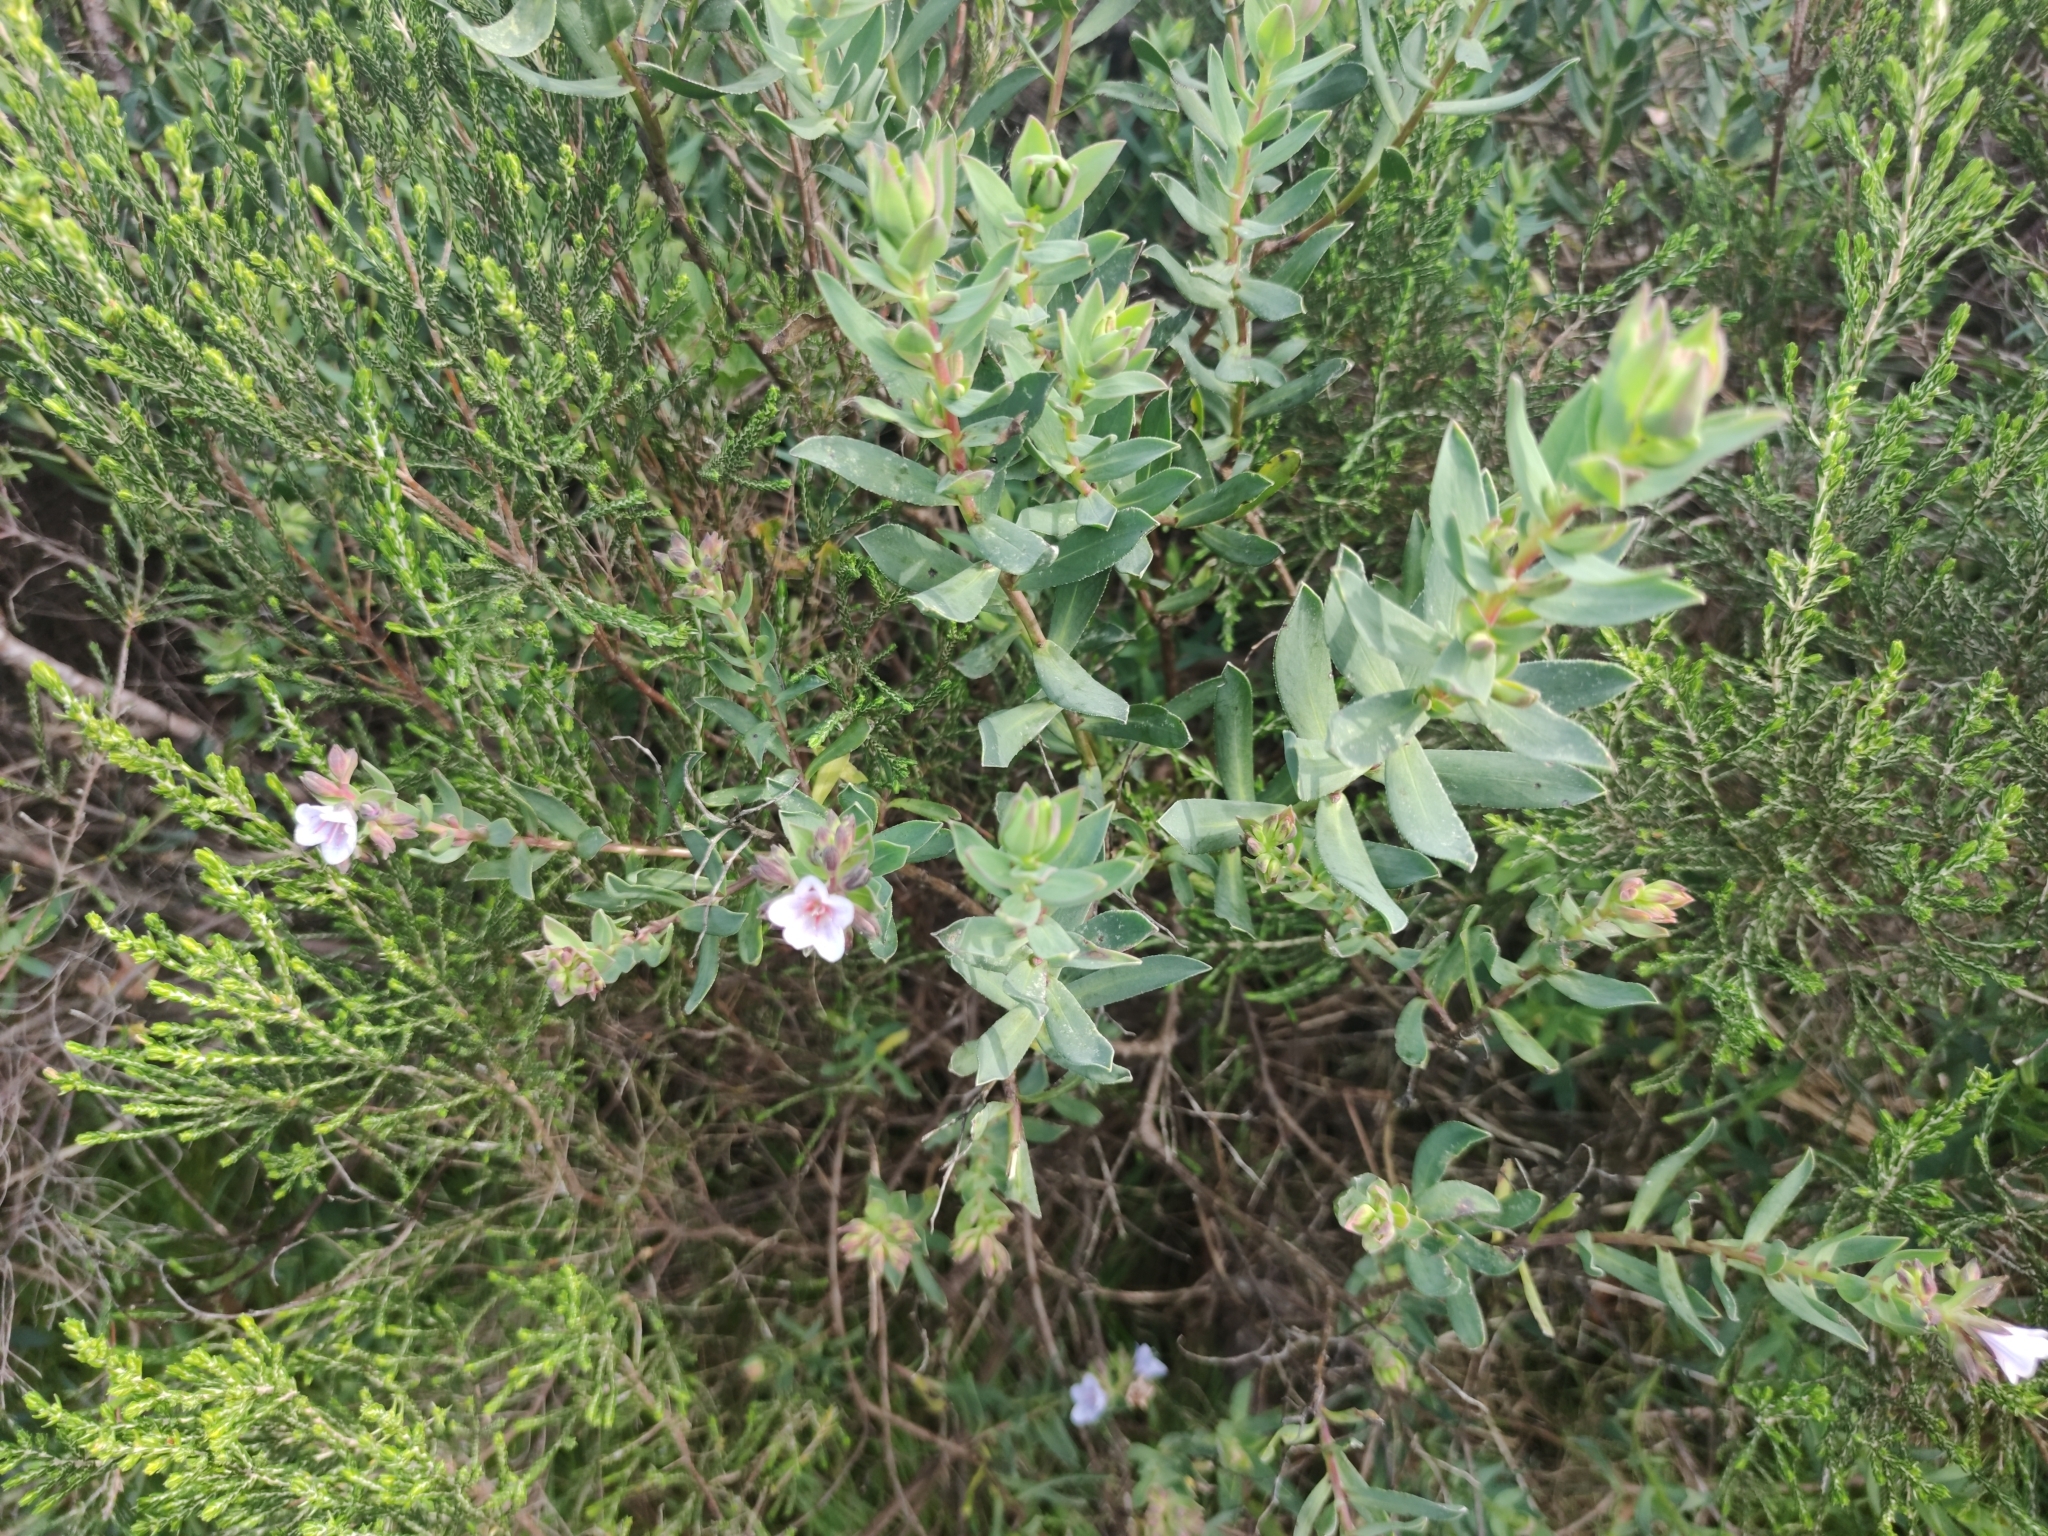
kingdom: Plantae
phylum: Tracheophyta
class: Magnoliopsida
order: Boraginales
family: Boraginaceae
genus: Lobostemon
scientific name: Lobostemon glaucophyllus
